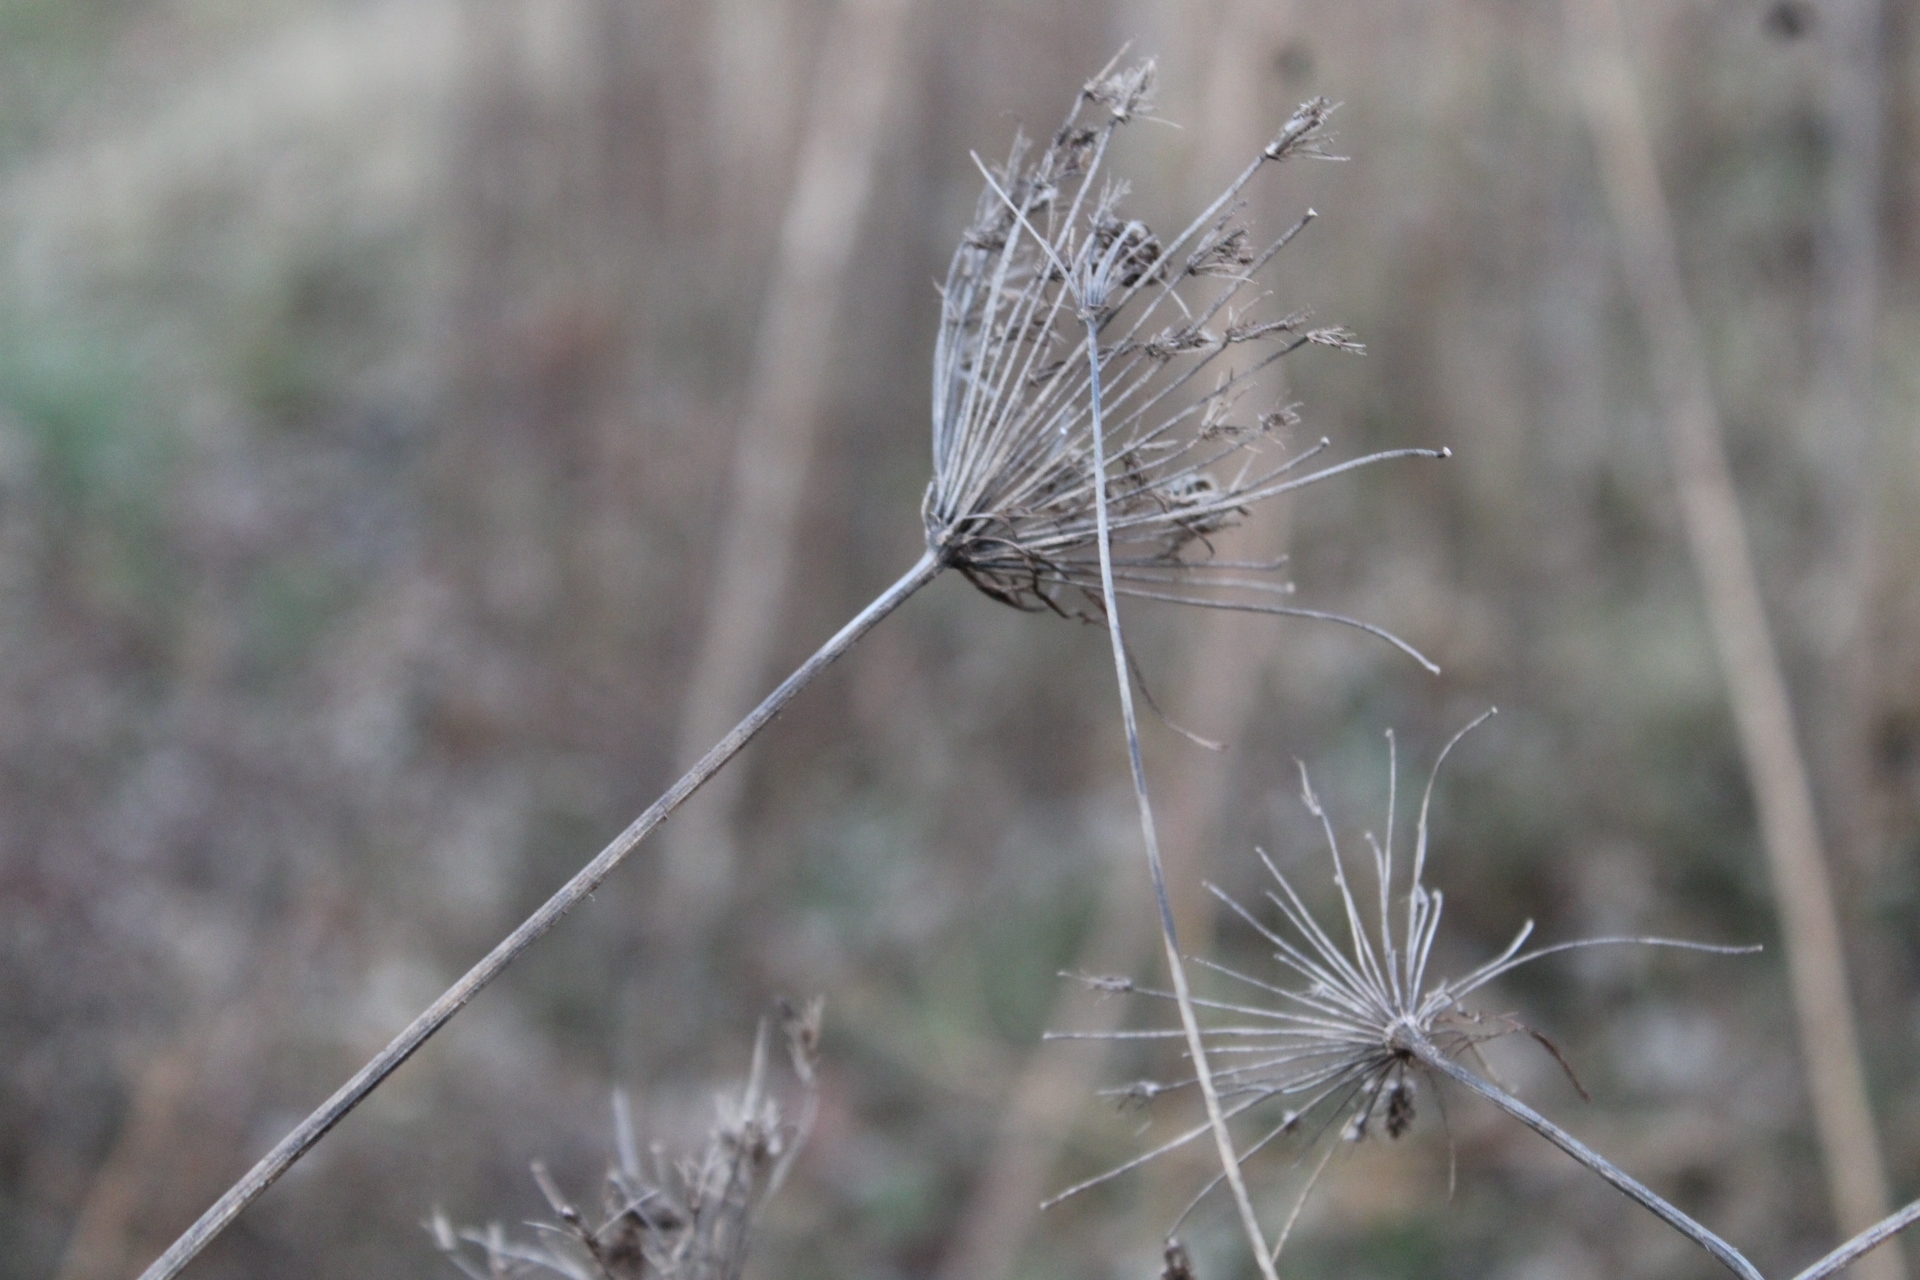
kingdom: Plantae
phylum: Tracheophyta
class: Magnoliopsida
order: Apiales
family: Apiaceae
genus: Daucus
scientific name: Daucus carota
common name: Wild carrot
